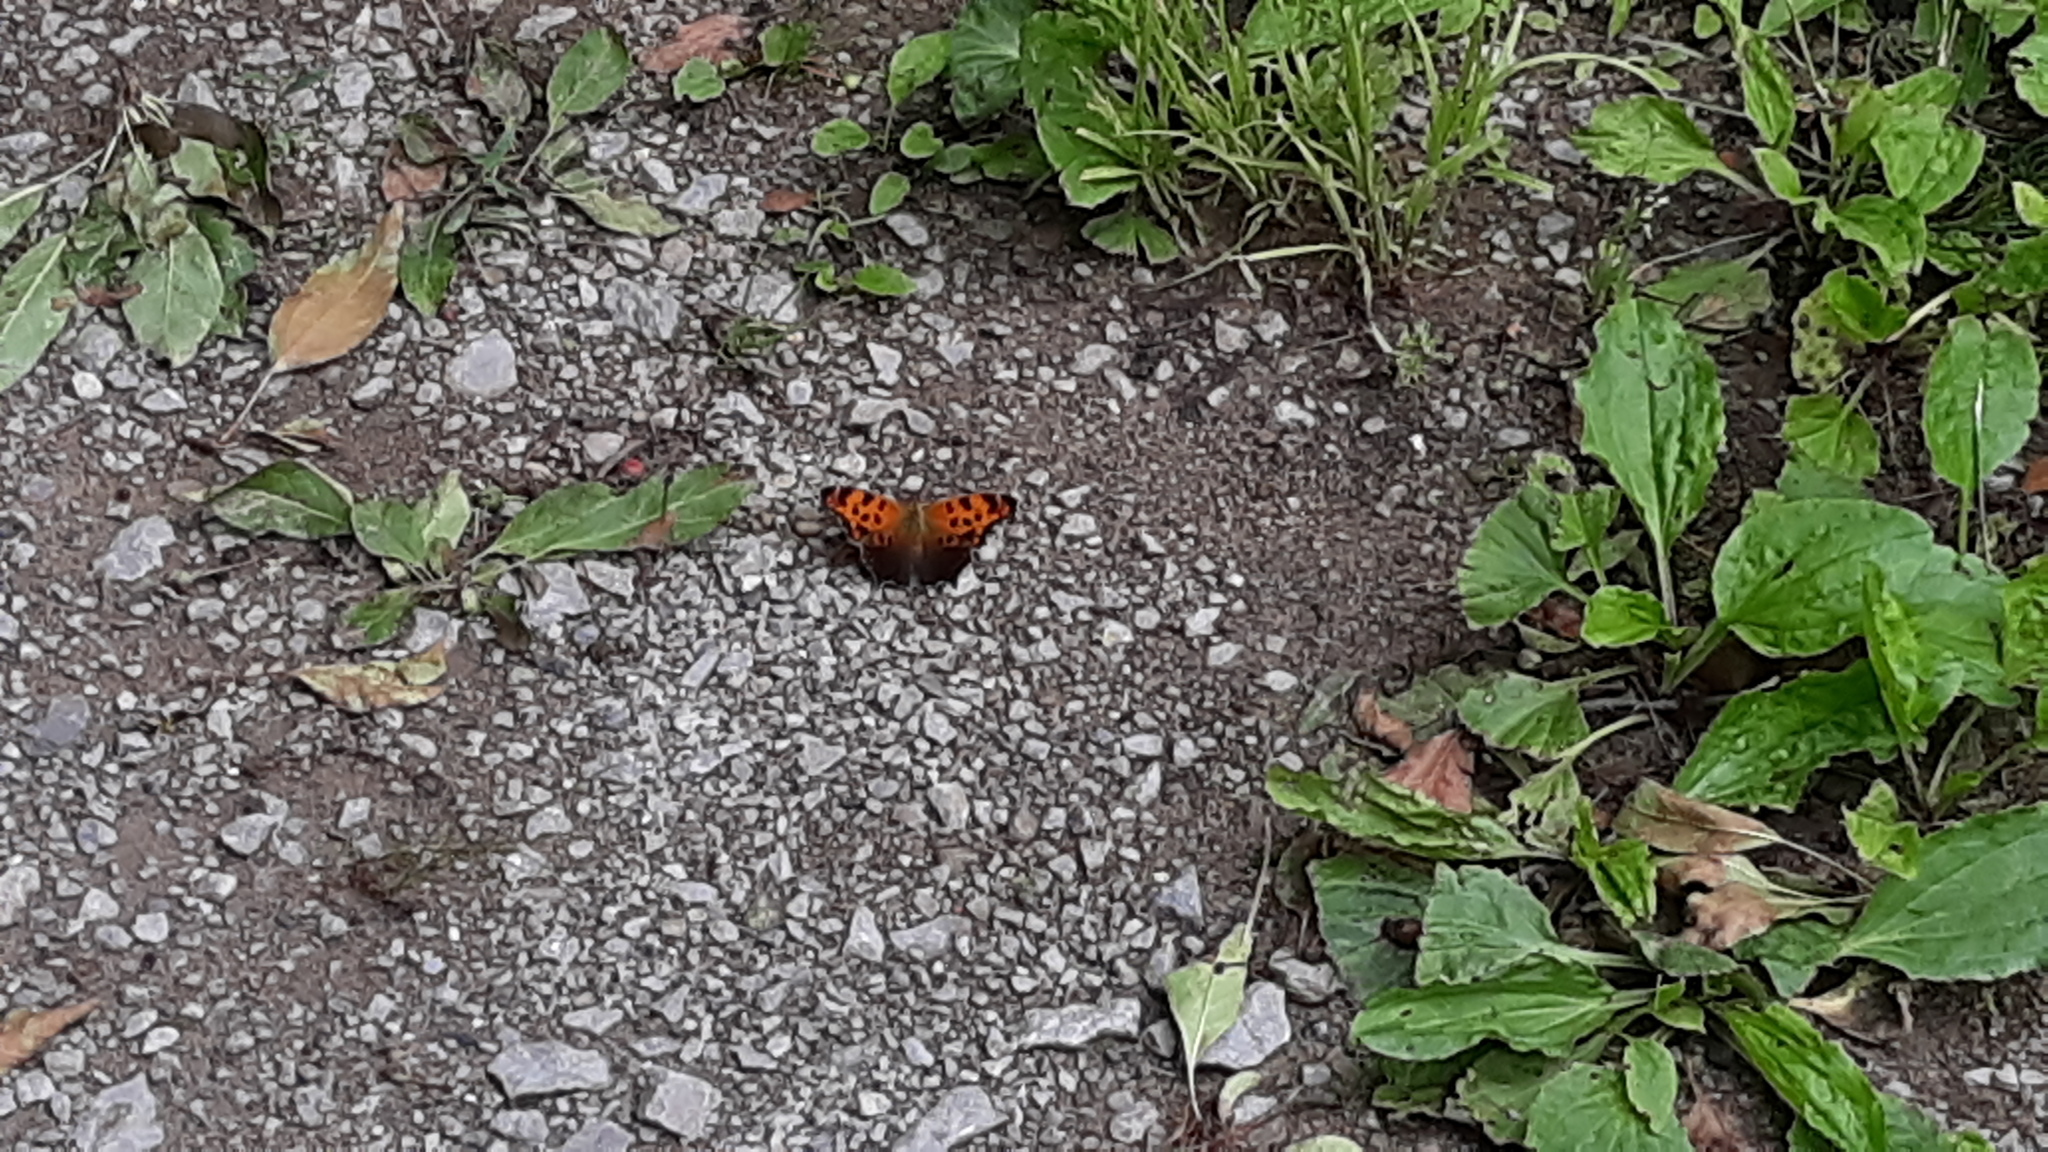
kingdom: Animalia
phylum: Arthropoda
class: Insecta
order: Lepidoptera
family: Nymphalidae
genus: Polygonia
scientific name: Polygonia comma
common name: Eastern comma
